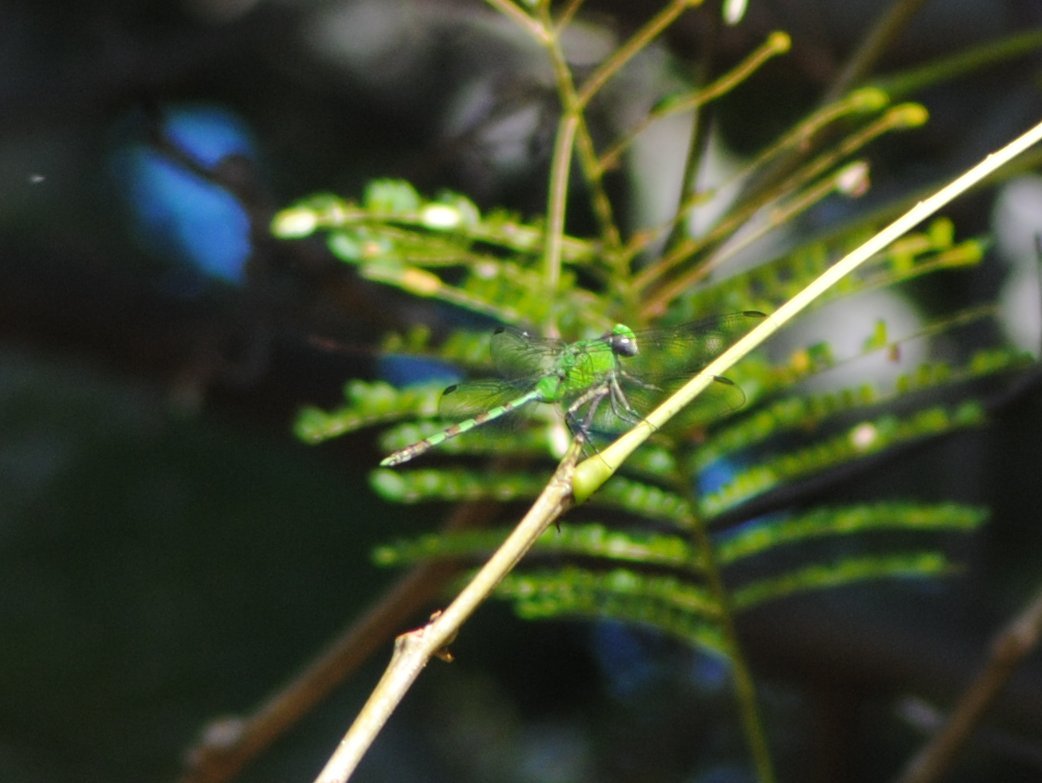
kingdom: Animalia
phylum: Arthropoda
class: Insecta
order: Odonata
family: Libellulidae
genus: Erythemis
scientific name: Erythemis vesiculosa
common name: Great pondhawk
